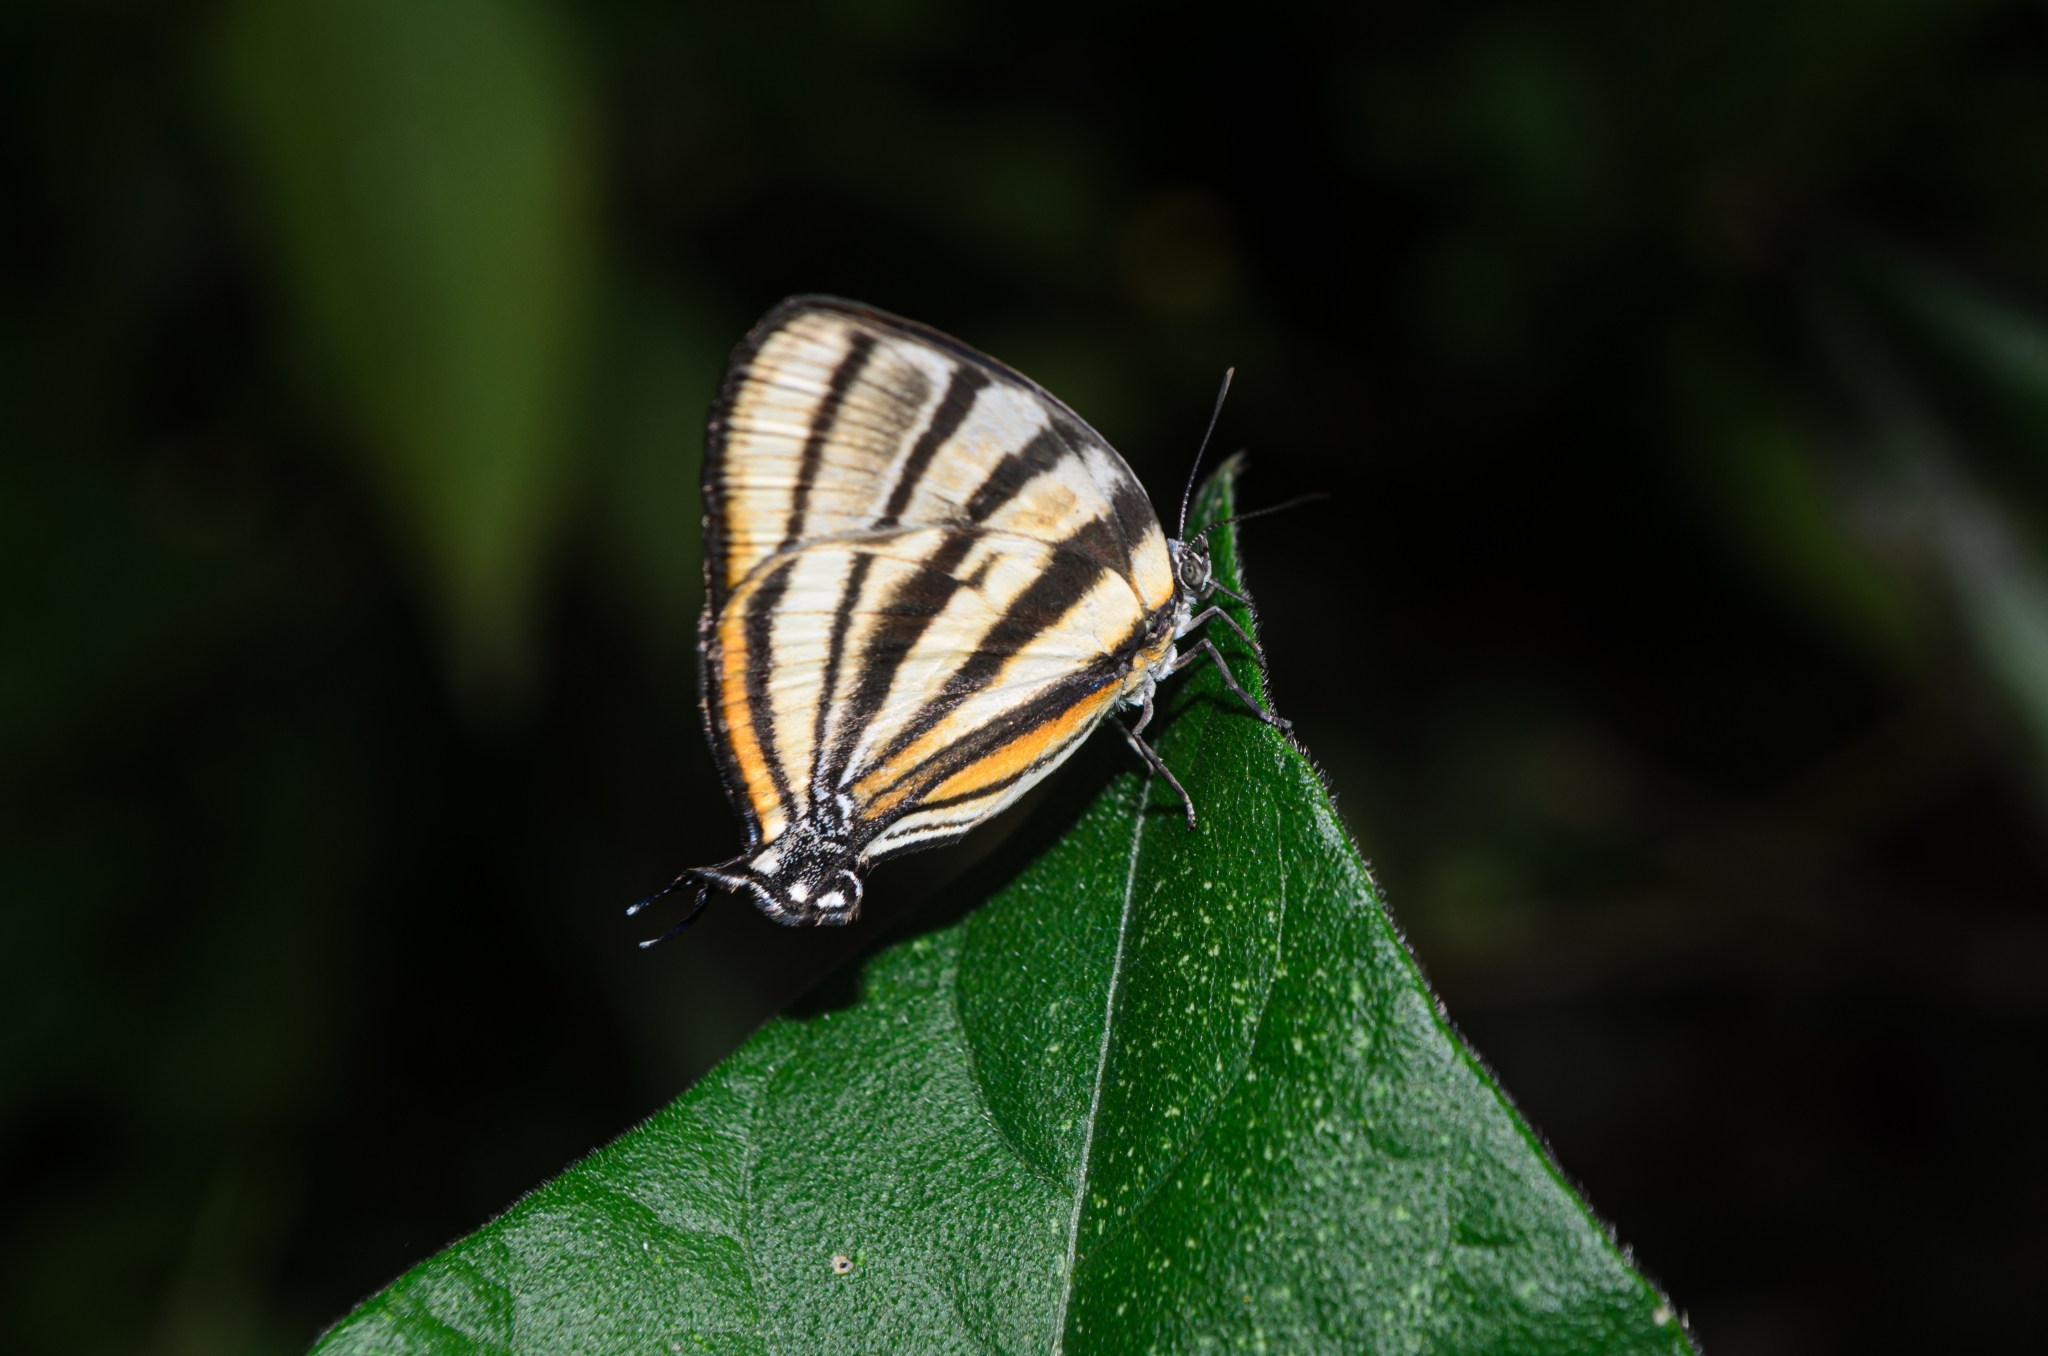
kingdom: Animalia
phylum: Arthropoda
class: Insecta
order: Lepidoptera
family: Lycaenidae
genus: Arawacus
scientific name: Arawacus separata
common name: Separated stripestreak
